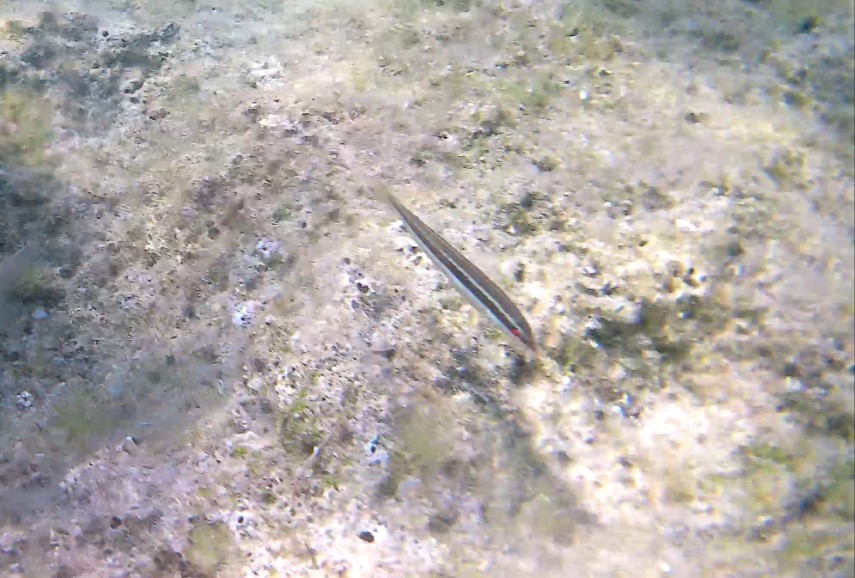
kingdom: Animalia
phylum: Chordata
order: Perciformes
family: Labridae
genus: Coris
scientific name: Coris julis
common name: Rainbow wrasse
